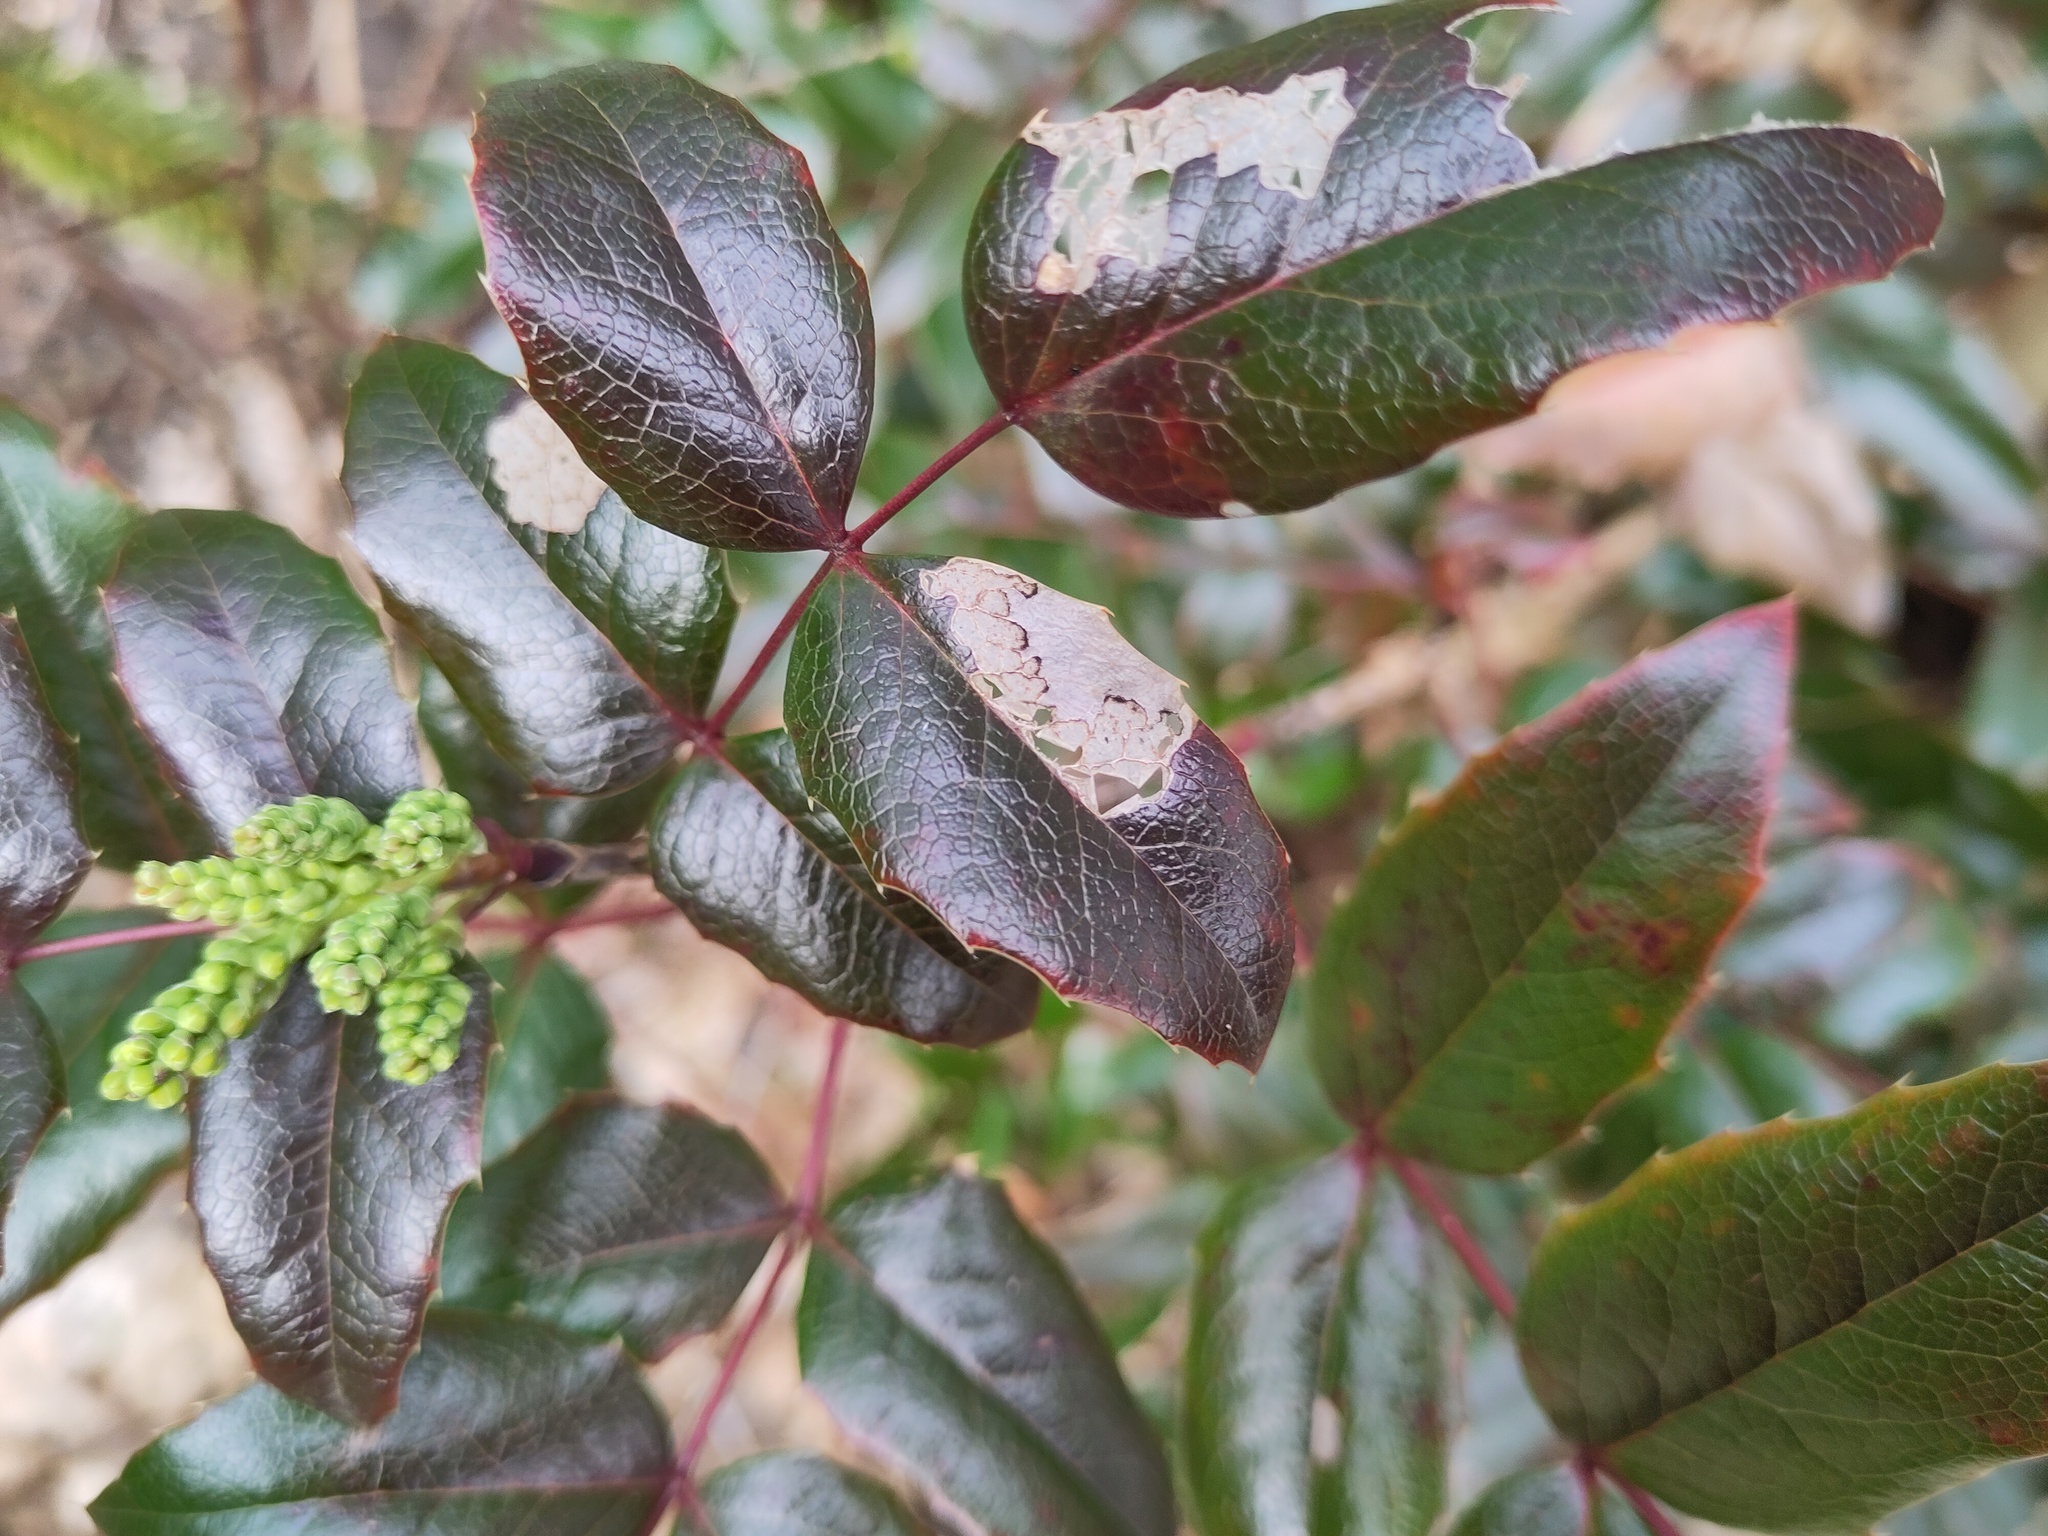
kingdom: Plantae
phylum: Tracheophyta
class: Magnoliopsida
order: Ranunculales
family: Berberidaceae
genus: Mahonia
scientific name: Mahonia aquifolium
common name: Oregon-grape
